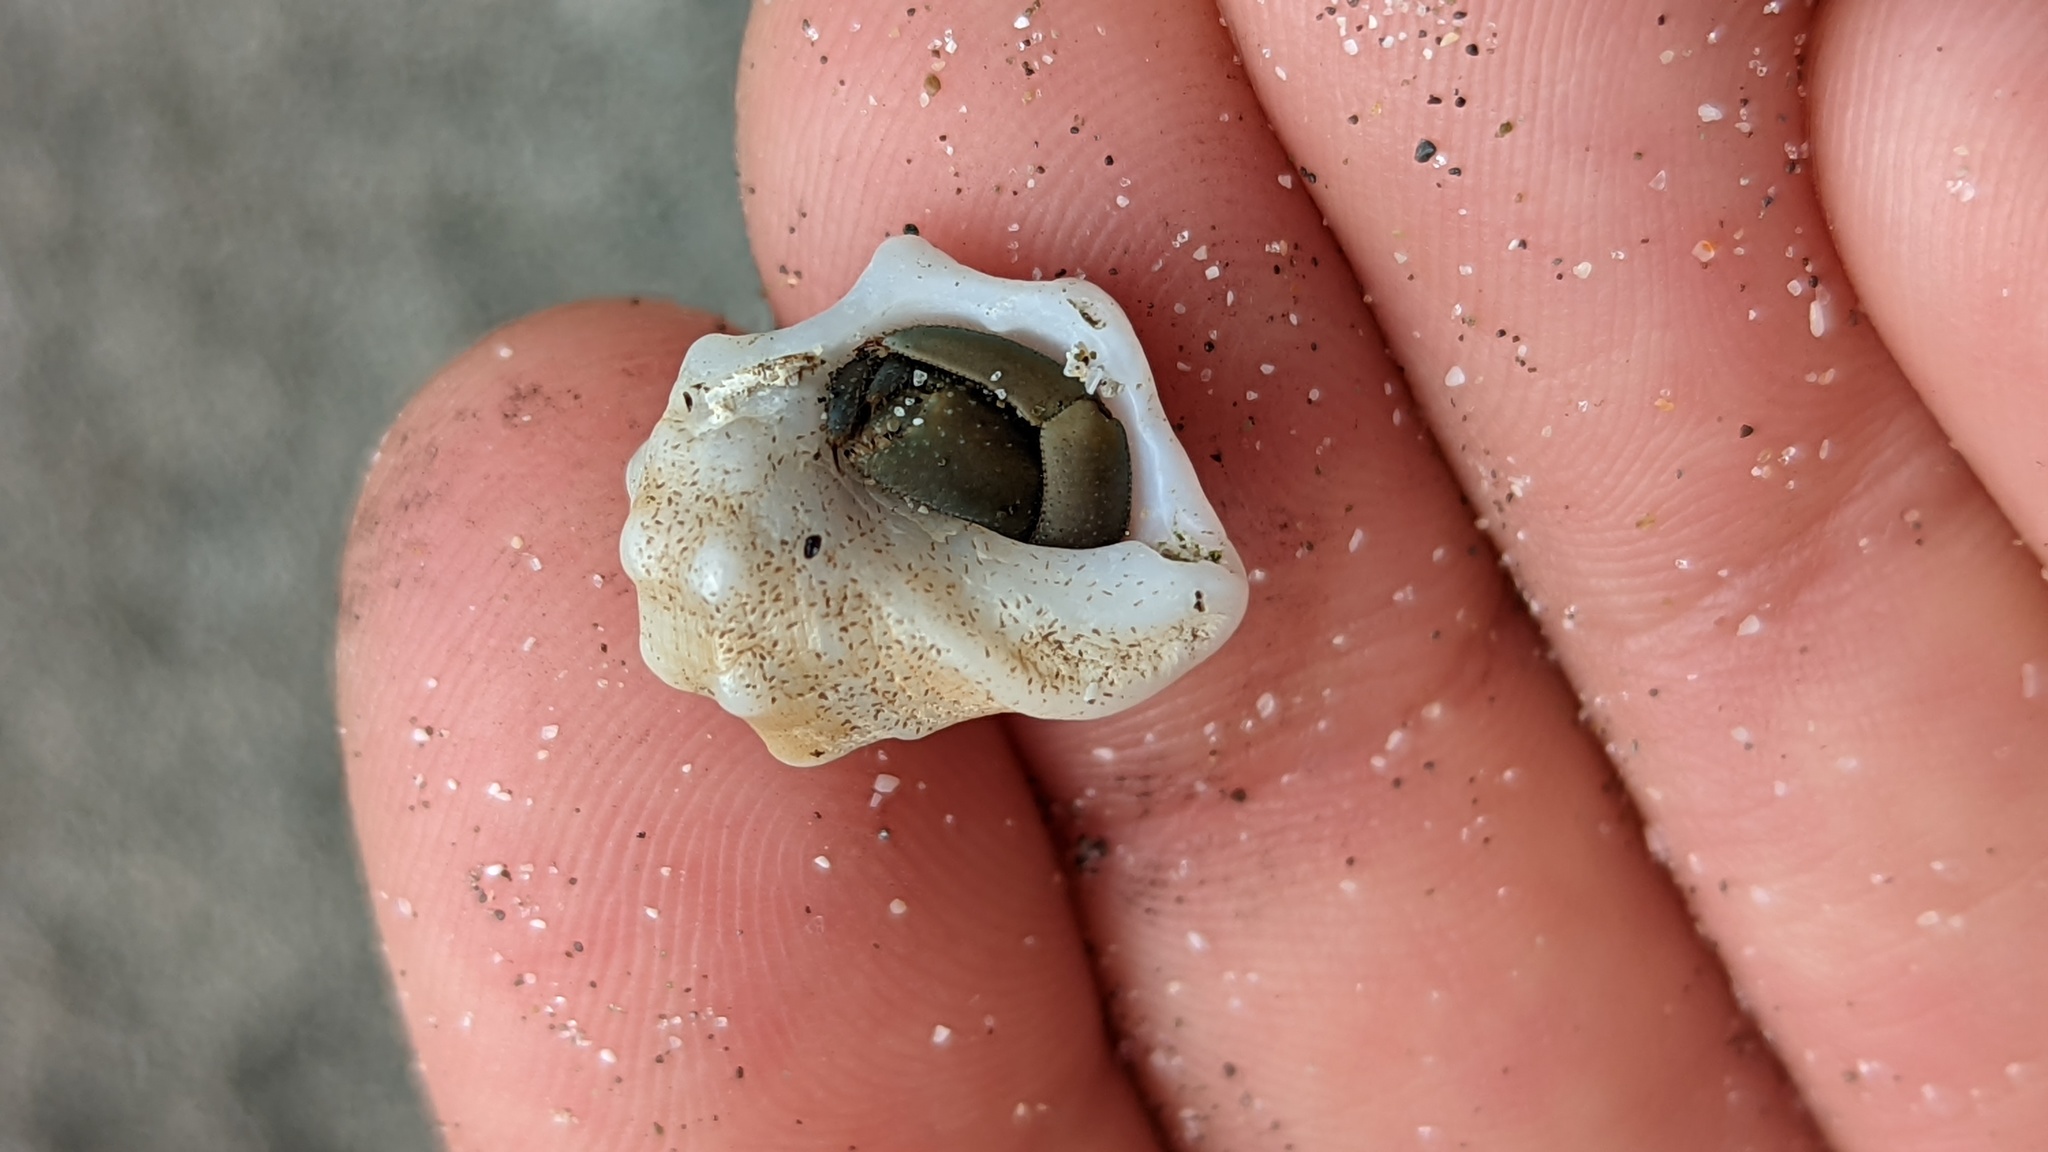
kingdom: Animalia
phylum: Mollusca
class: Gastropoda
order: Neogastropoda
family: Muricidae
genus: Acanthais
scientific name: Acanthais triangularis
